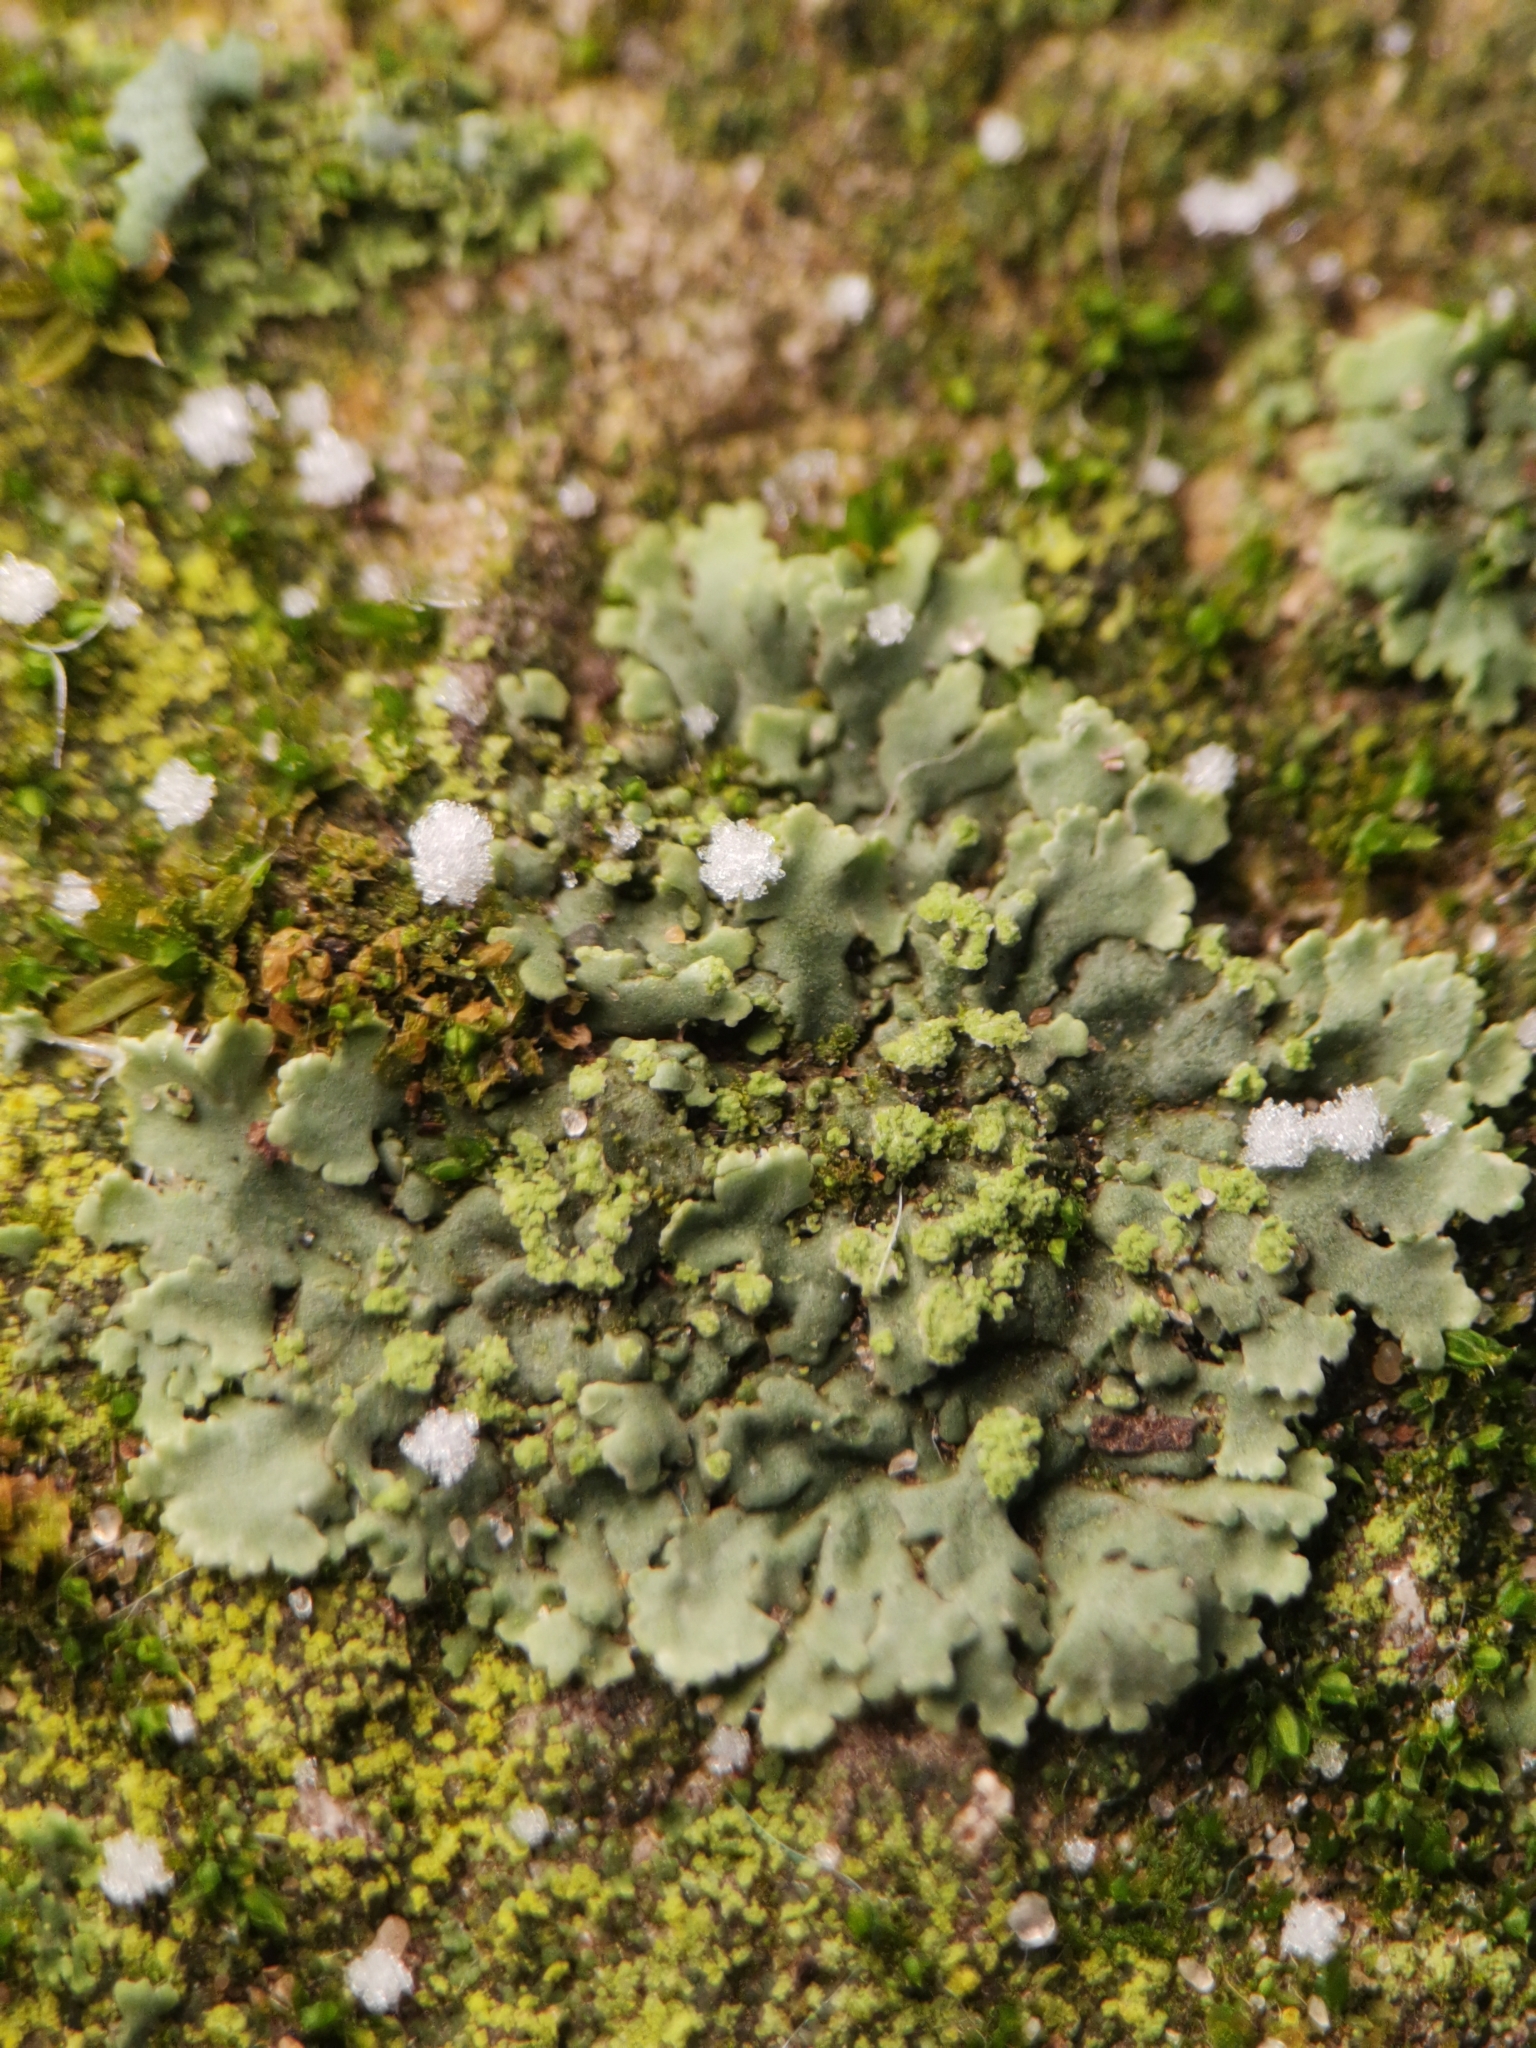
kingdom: Fungi
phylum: Ascomycota
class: Lecanoromycetes
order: Caliciales
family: Physciaceae
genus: Phaeophyscia
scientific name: Phaeophyscia orbicularis
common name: Mealy shadow lichen
